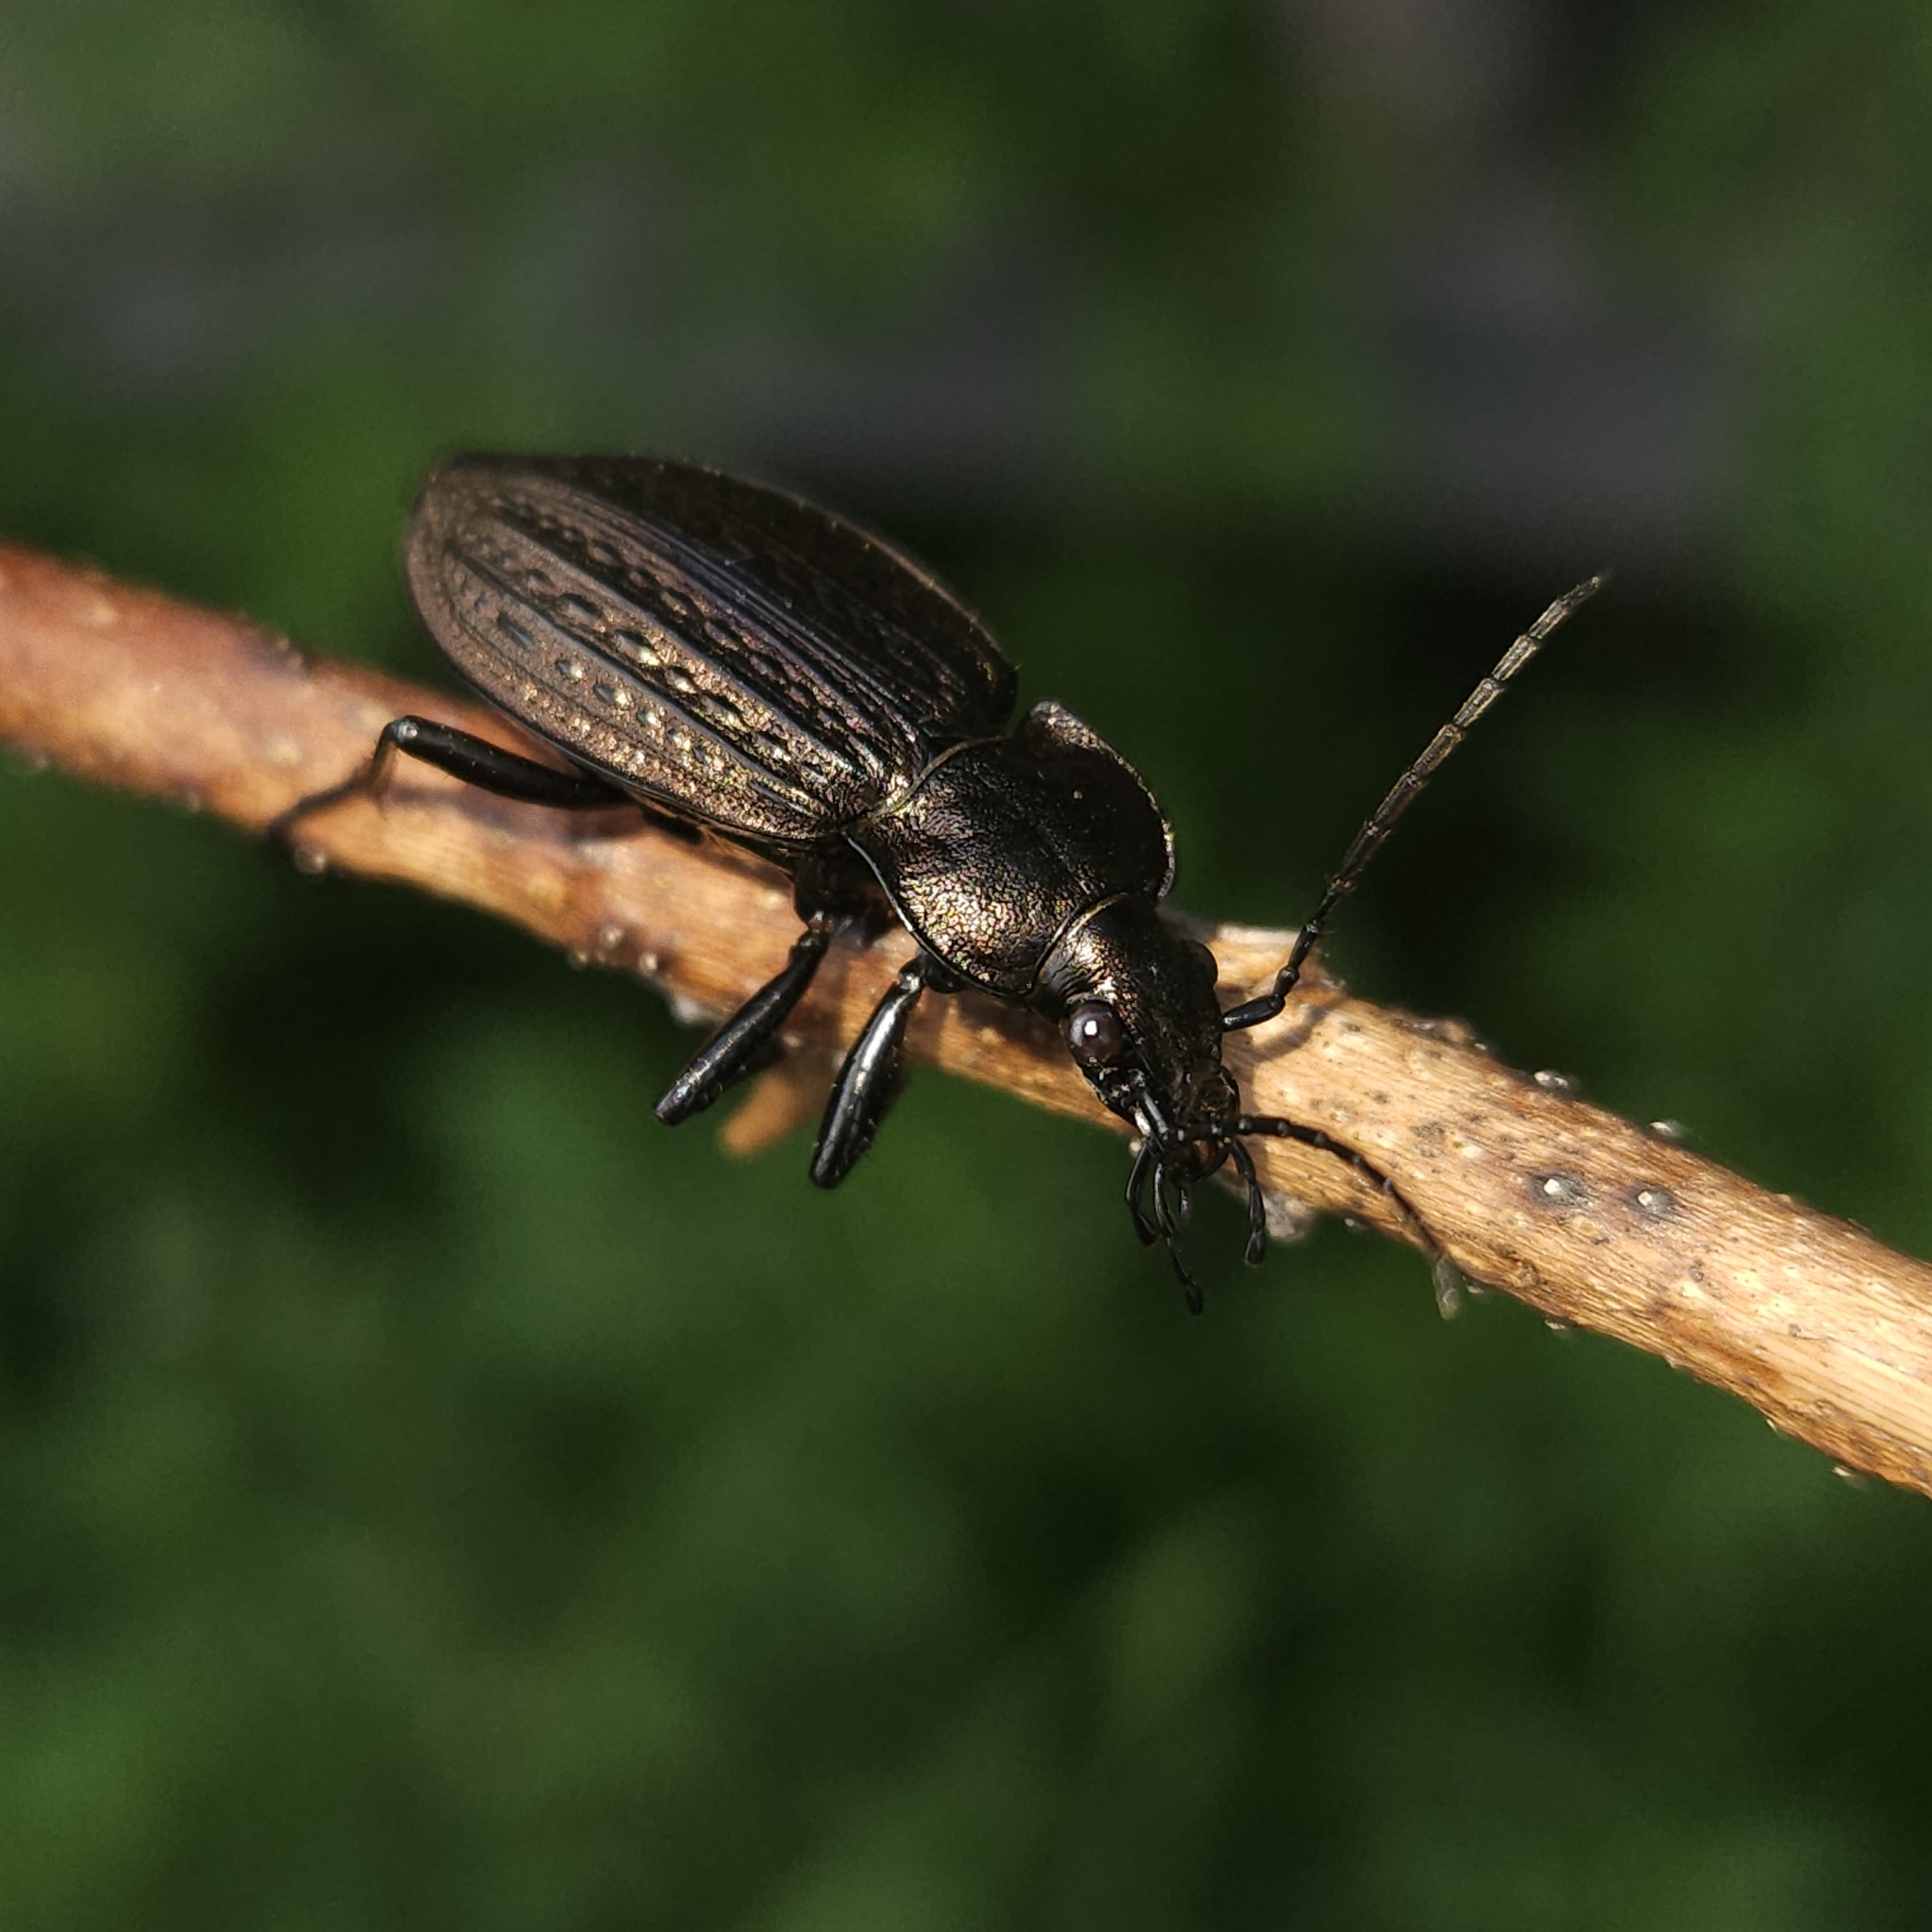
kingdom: Animalia
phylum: Arthropoda
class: Insecta
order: Coleoptera
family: Carabidae
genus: Carabus
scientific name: Carabus granulatus
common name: Granulate ground beetle
